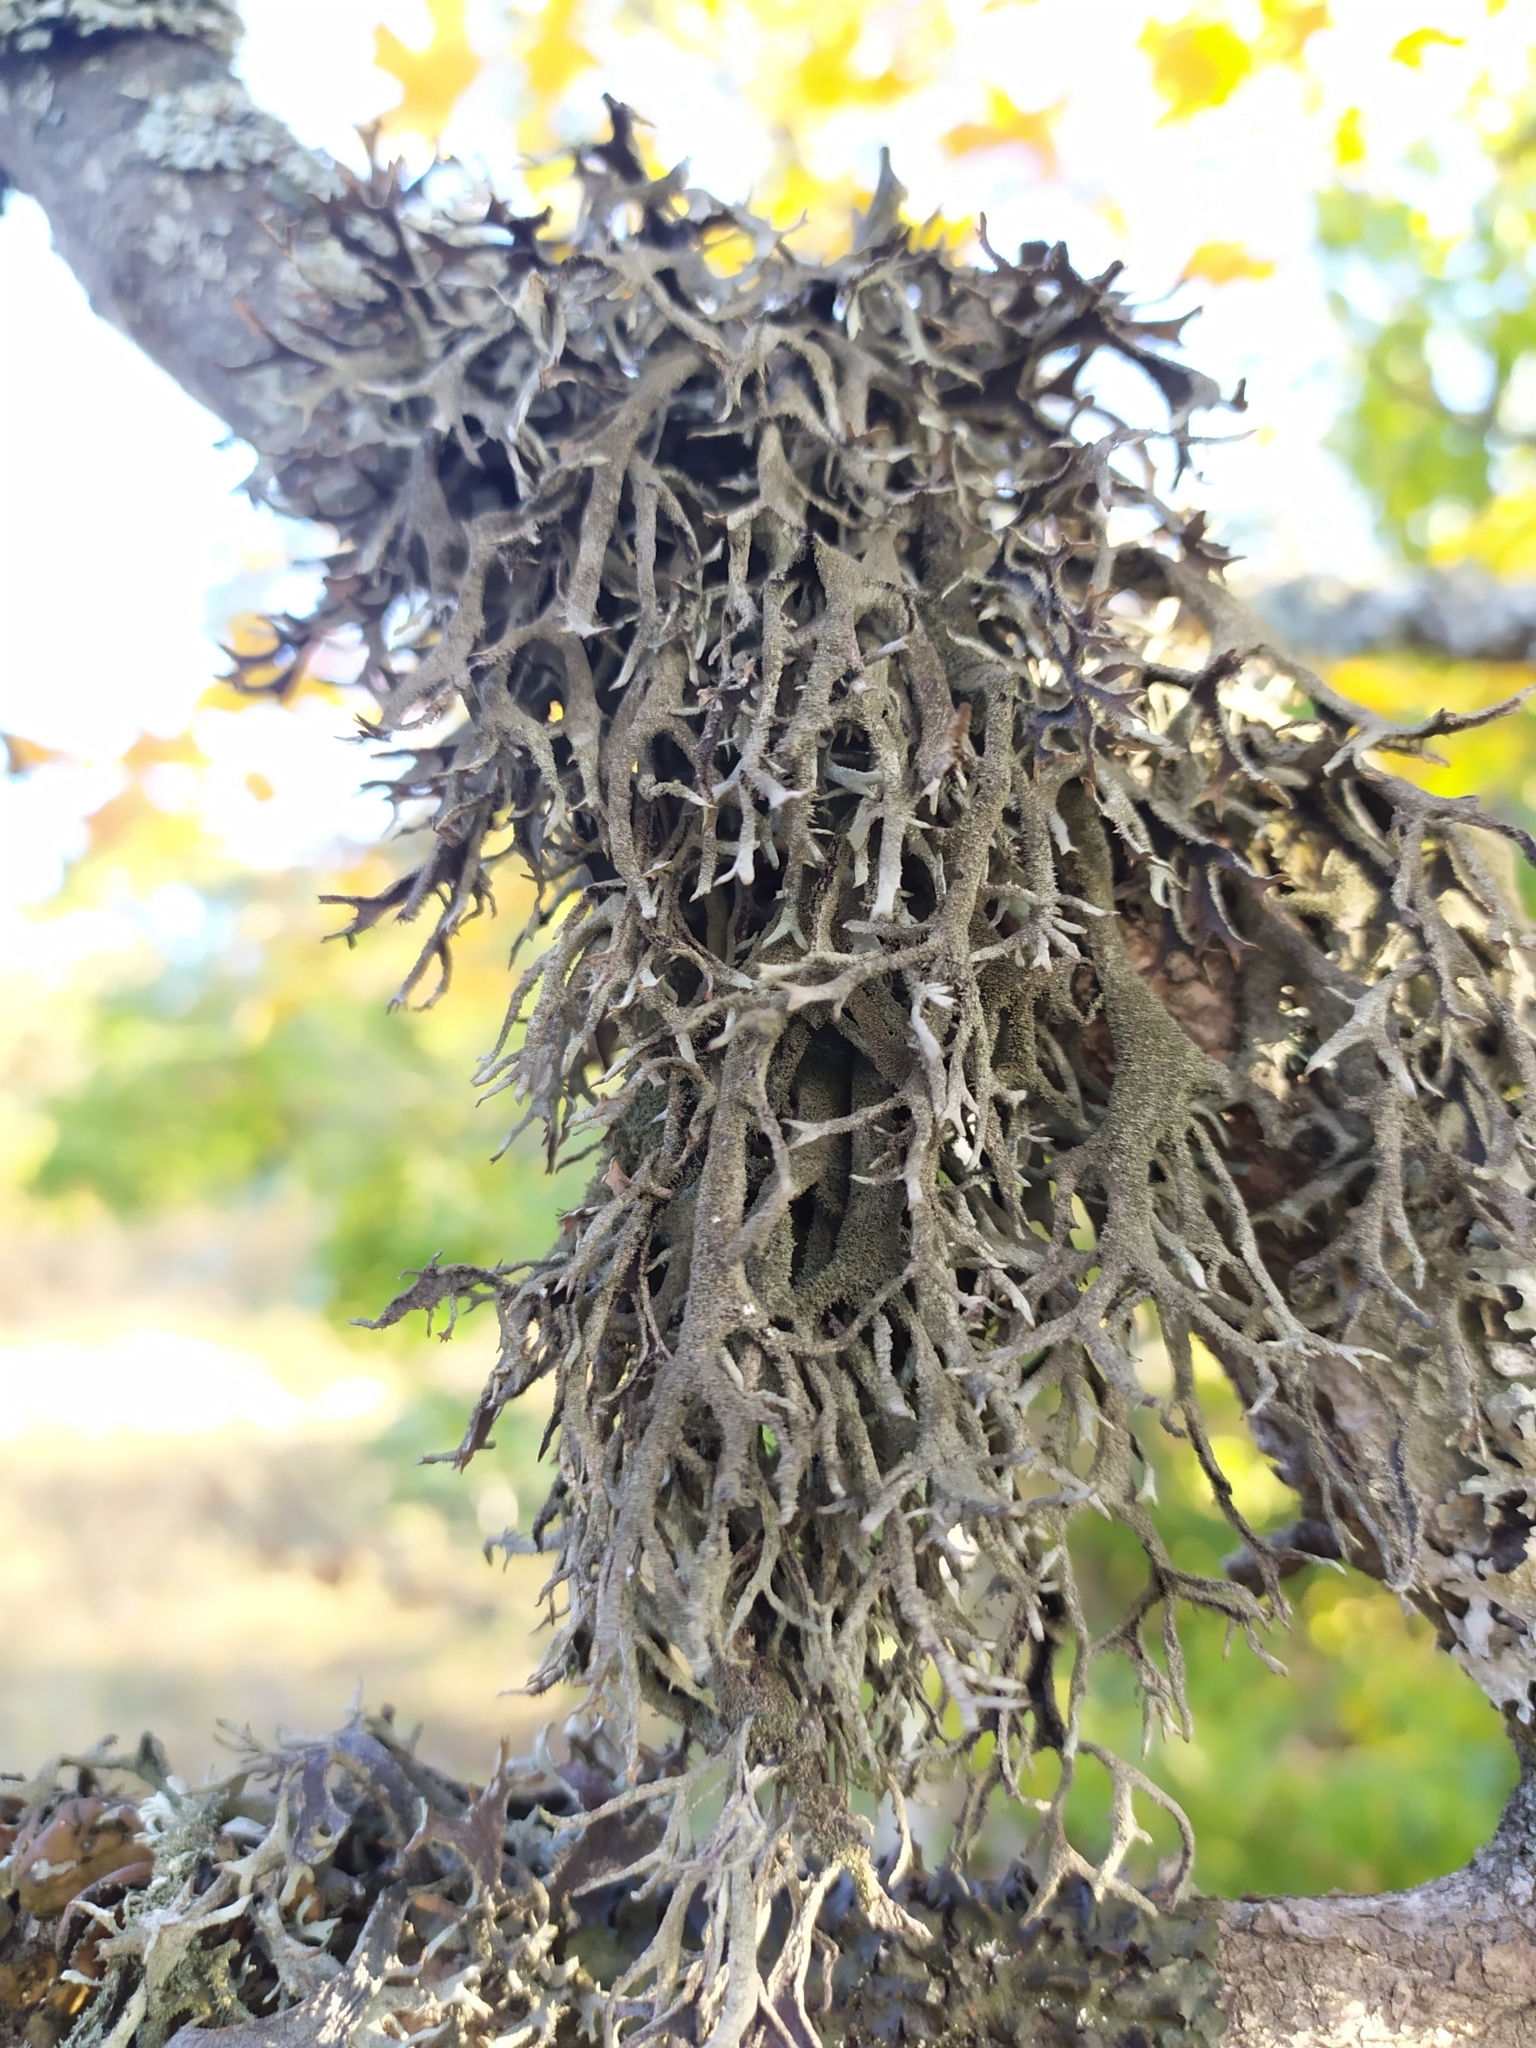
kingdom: Fungi
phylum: Ascomycota
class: Lecanoromycetes
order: Lecanorales
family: Parmeliaceae
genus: Pseudevernia
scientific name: Pseudevernia furfuracea
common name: Tree moss
